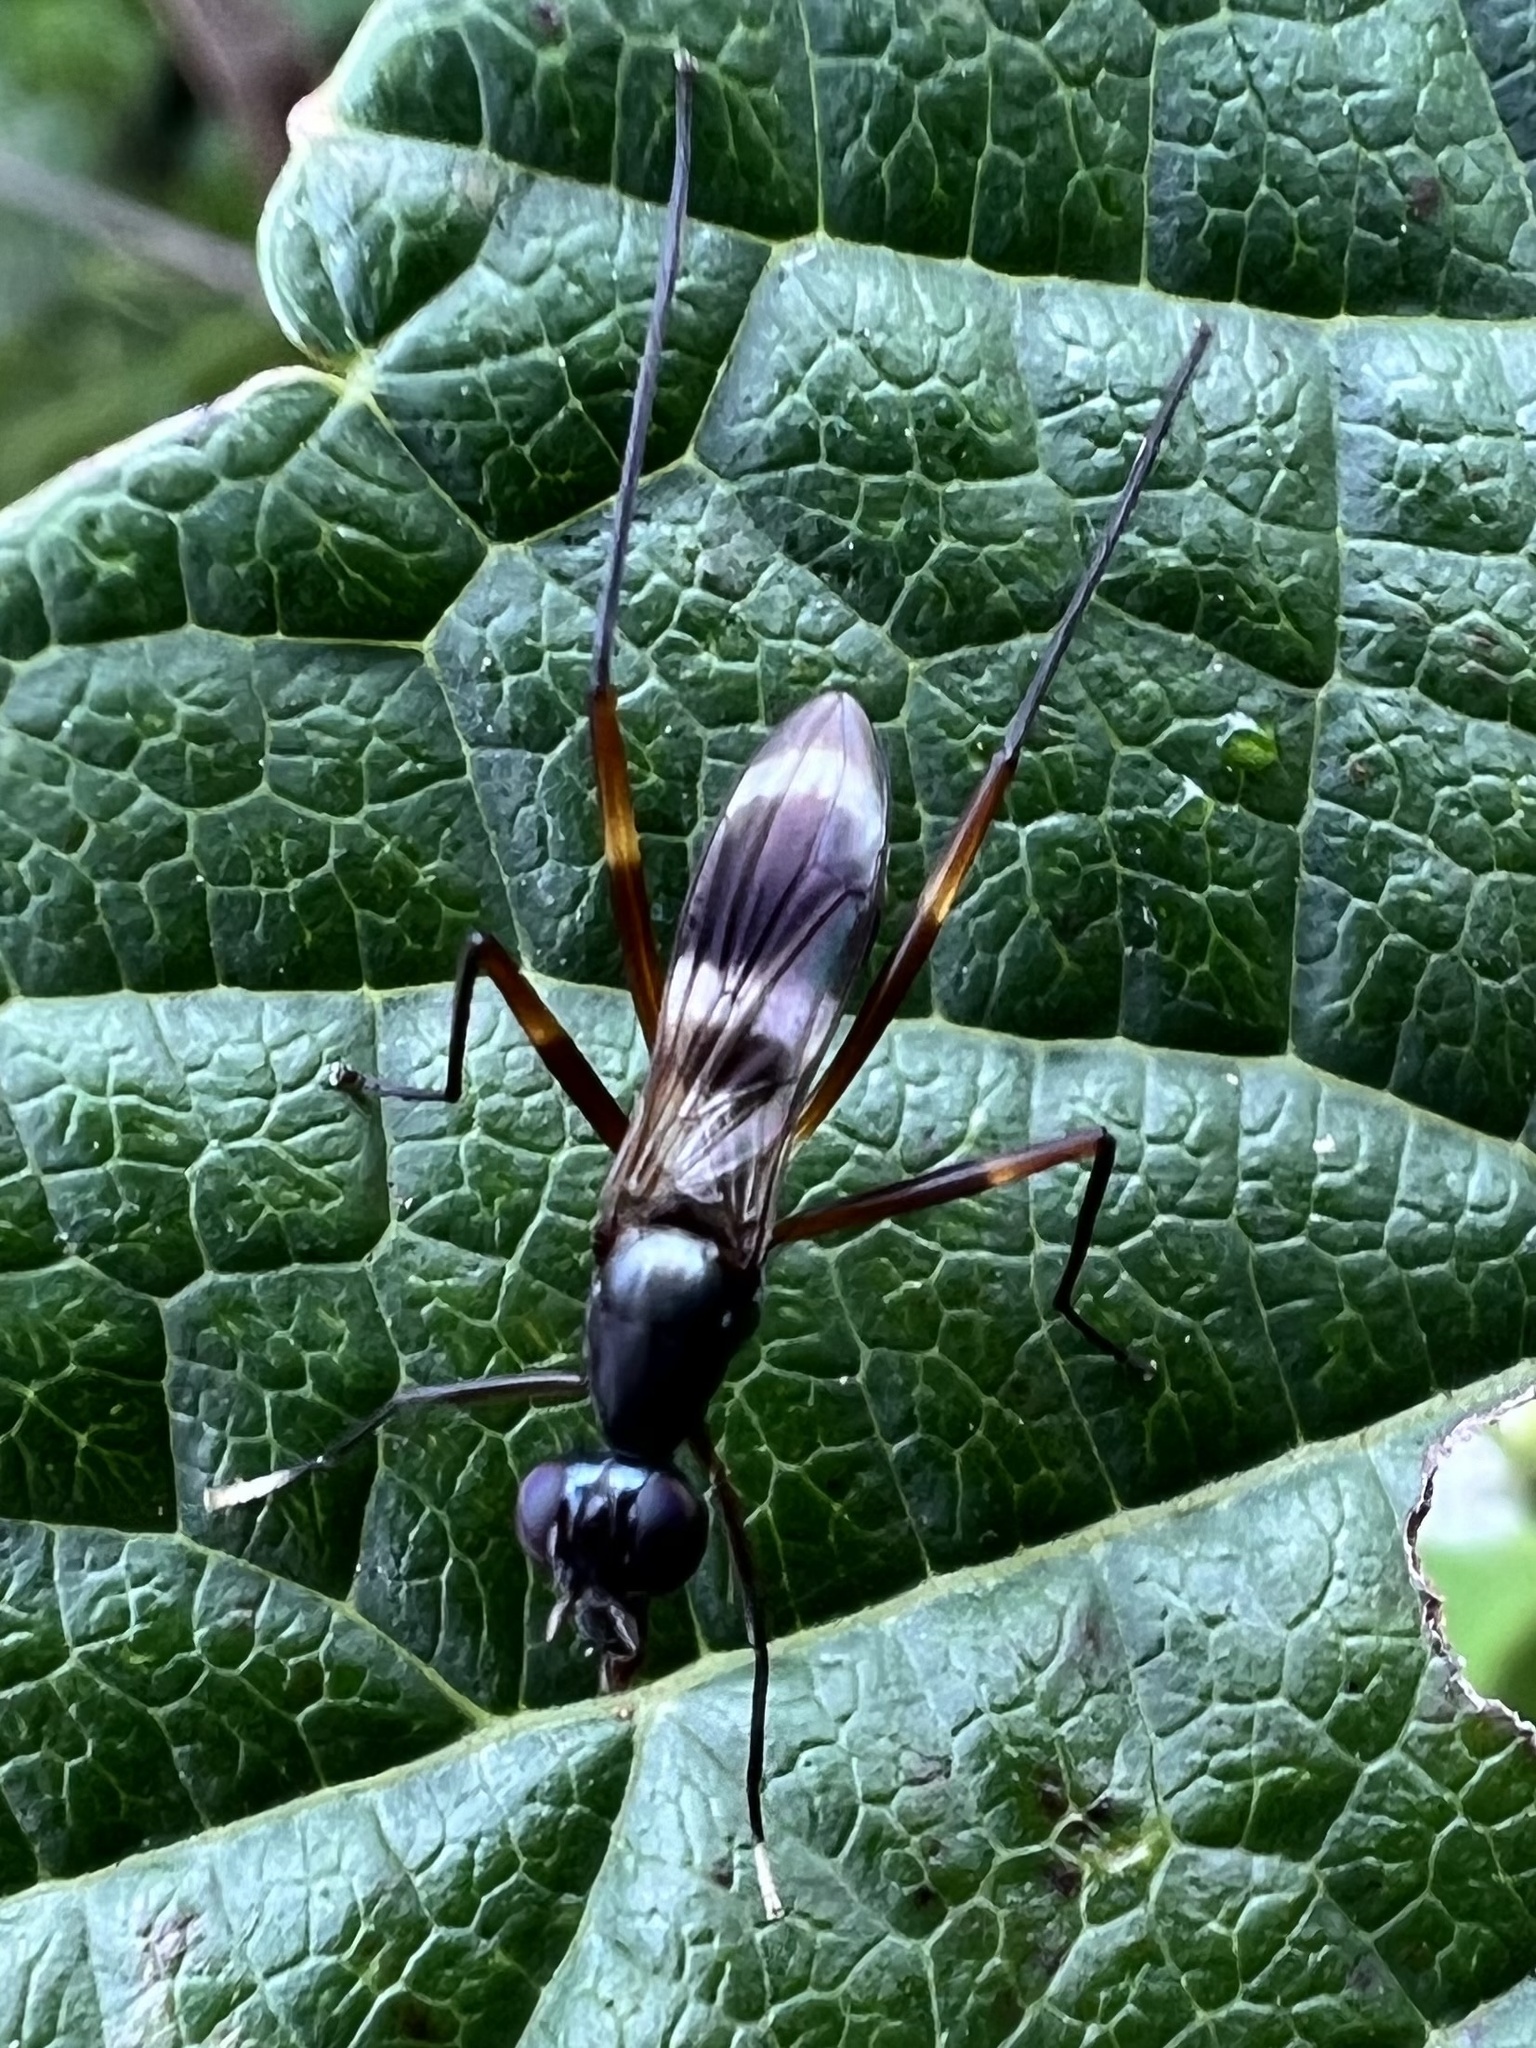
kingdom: Animalia
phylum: Arthropoda
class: Insecta
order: Diptera
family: Micropezidae
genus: Taeniaptera
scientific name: Taeniaptera trivittata
